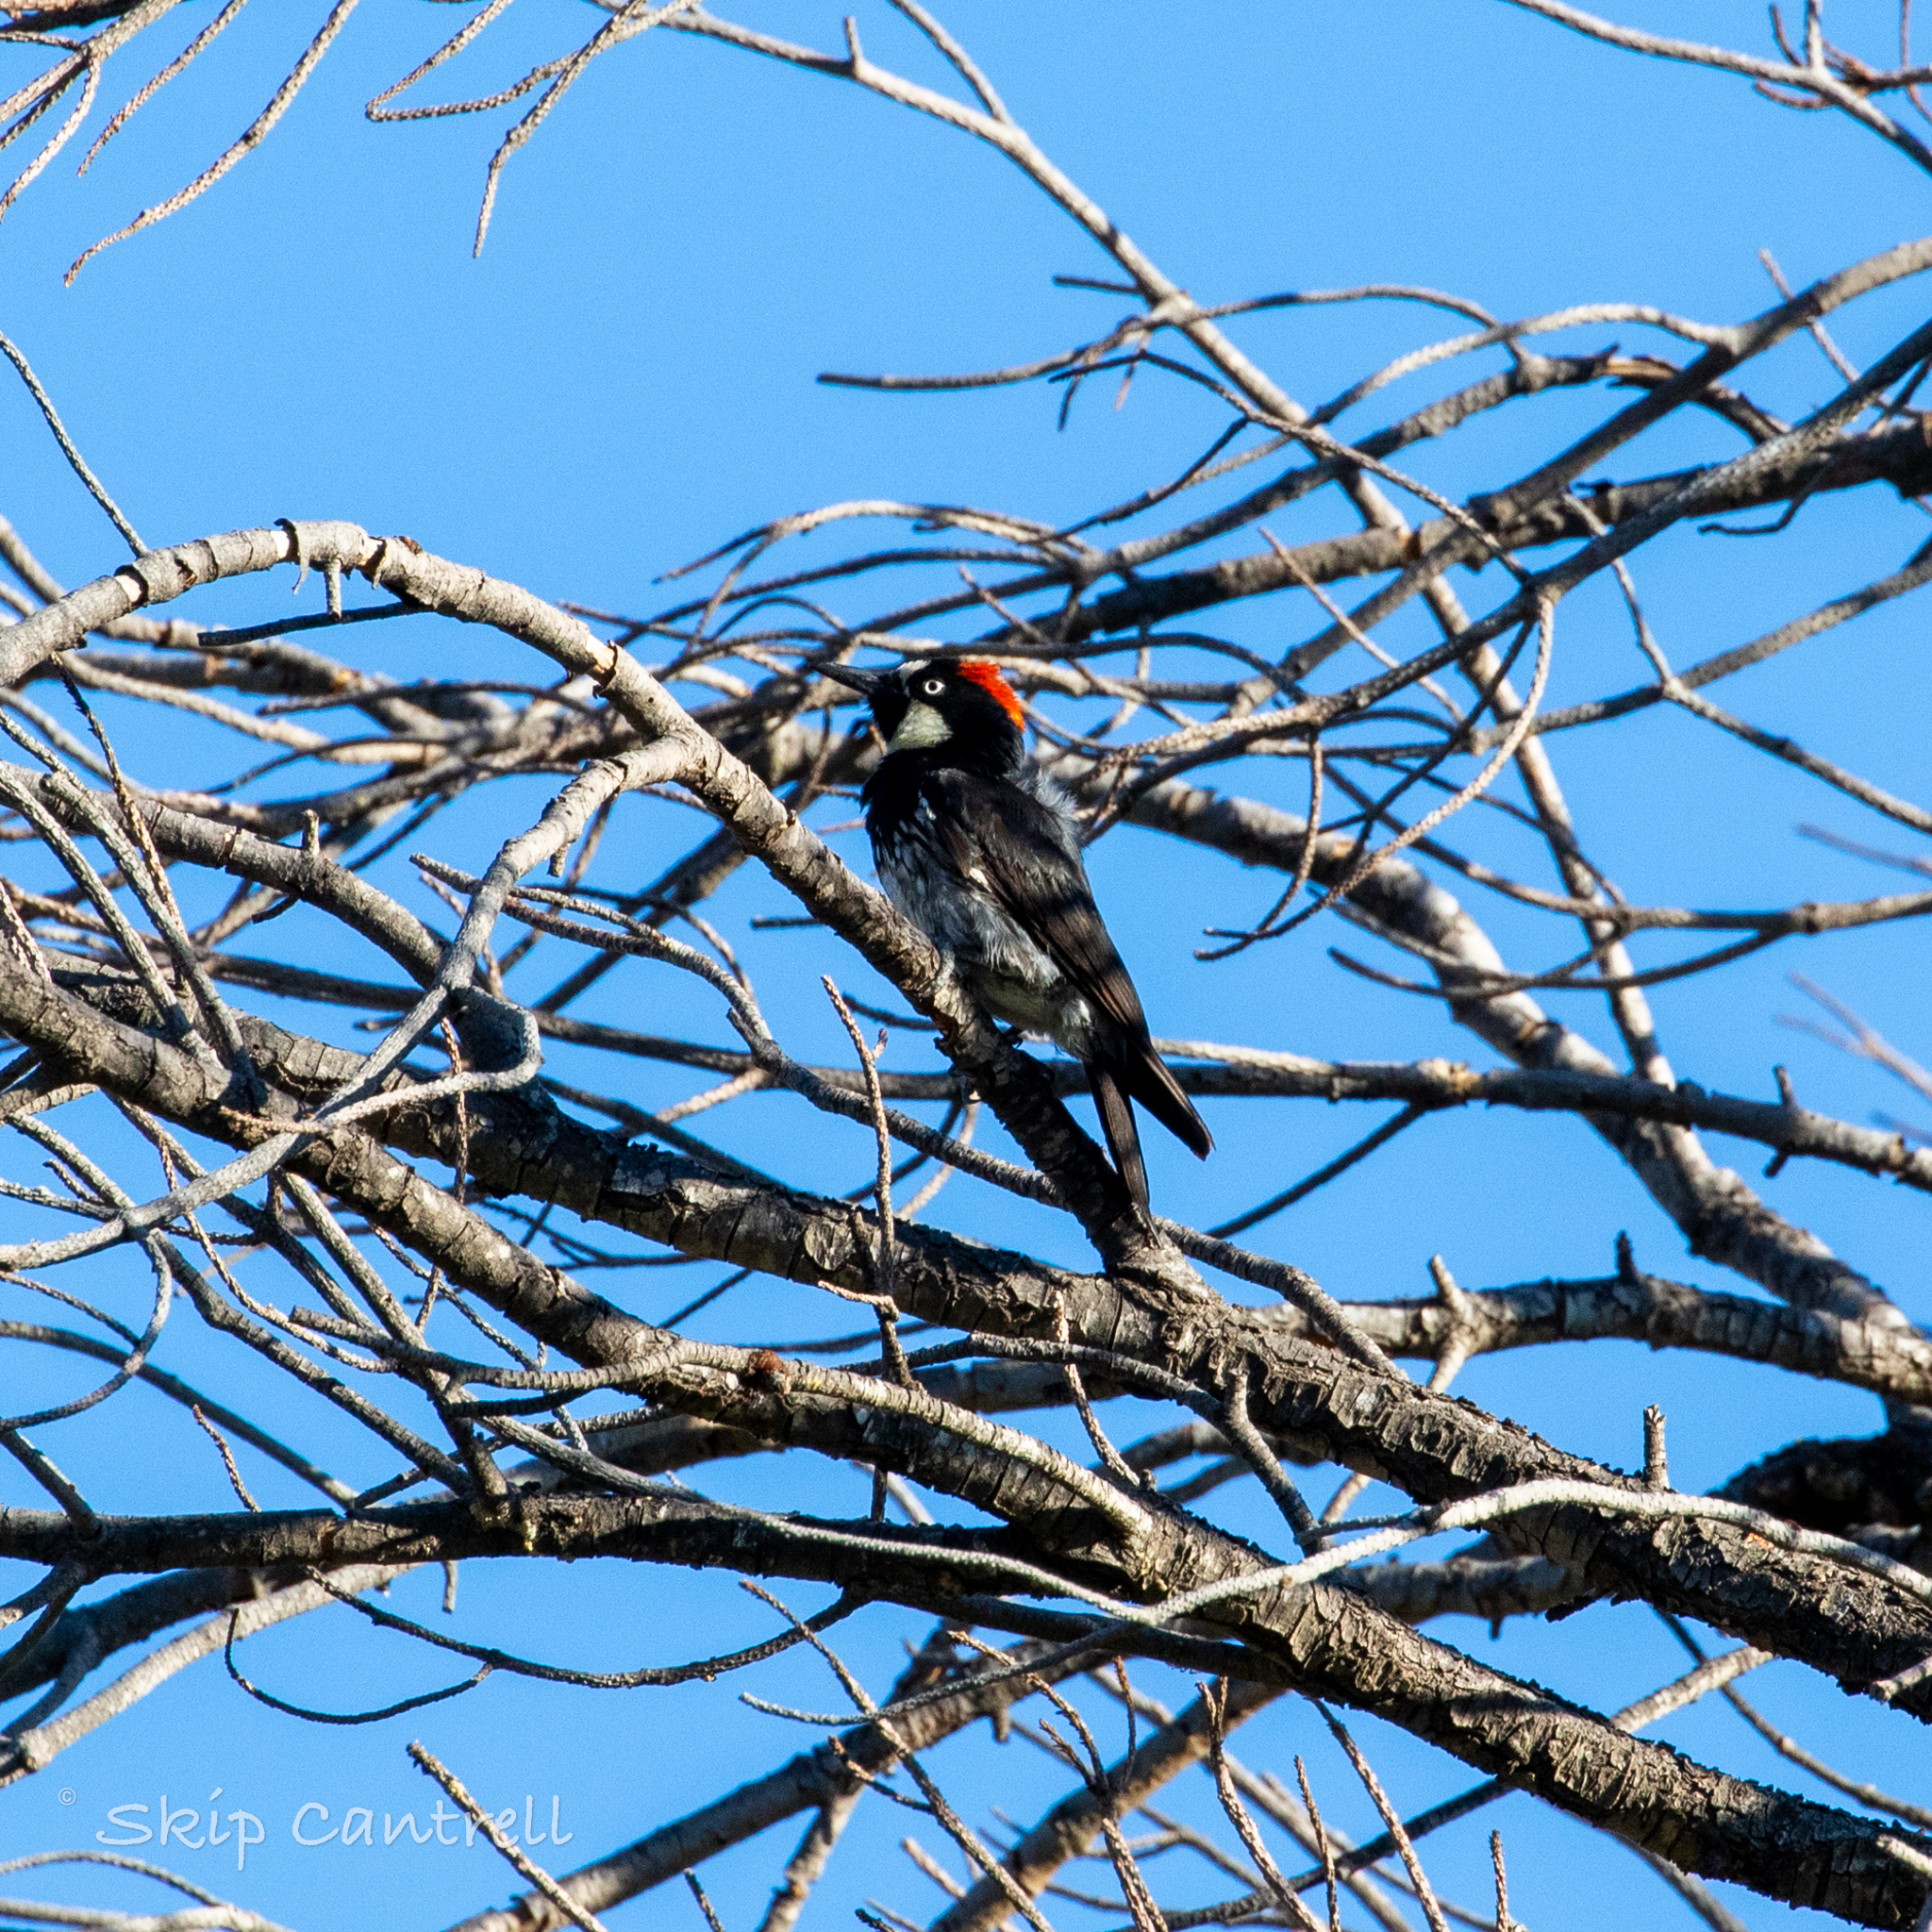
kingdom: Animalia
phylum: Chordata
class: Aves
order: Piciformes
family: Picidae
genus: Melanerpes
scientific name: Melanerpes formicivorus
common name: Acorn woodpecker
